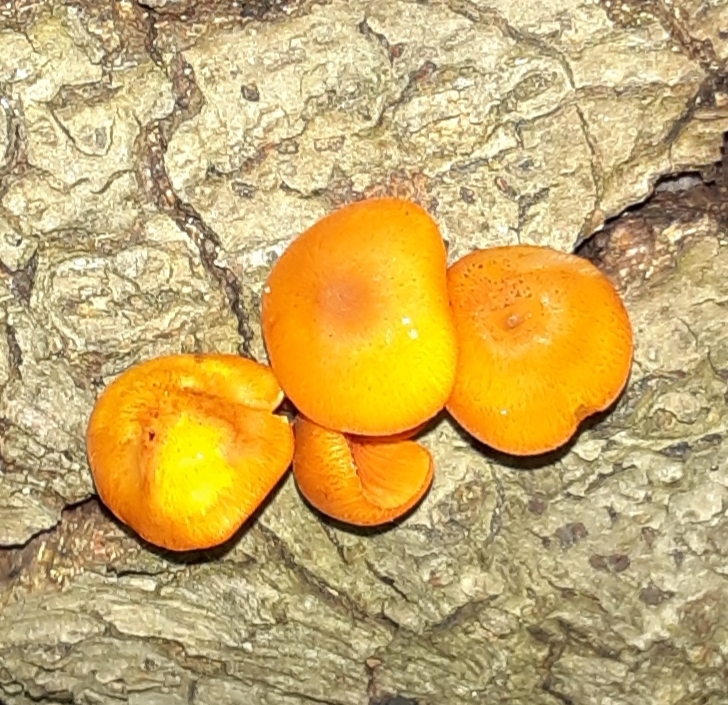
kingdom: Fungi
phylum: Basidiomycota
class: Agaricomycetes
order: Agaricales
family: Mycenaceae
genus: Mycena
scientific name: Mycena leaiana
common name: Orange mycena
